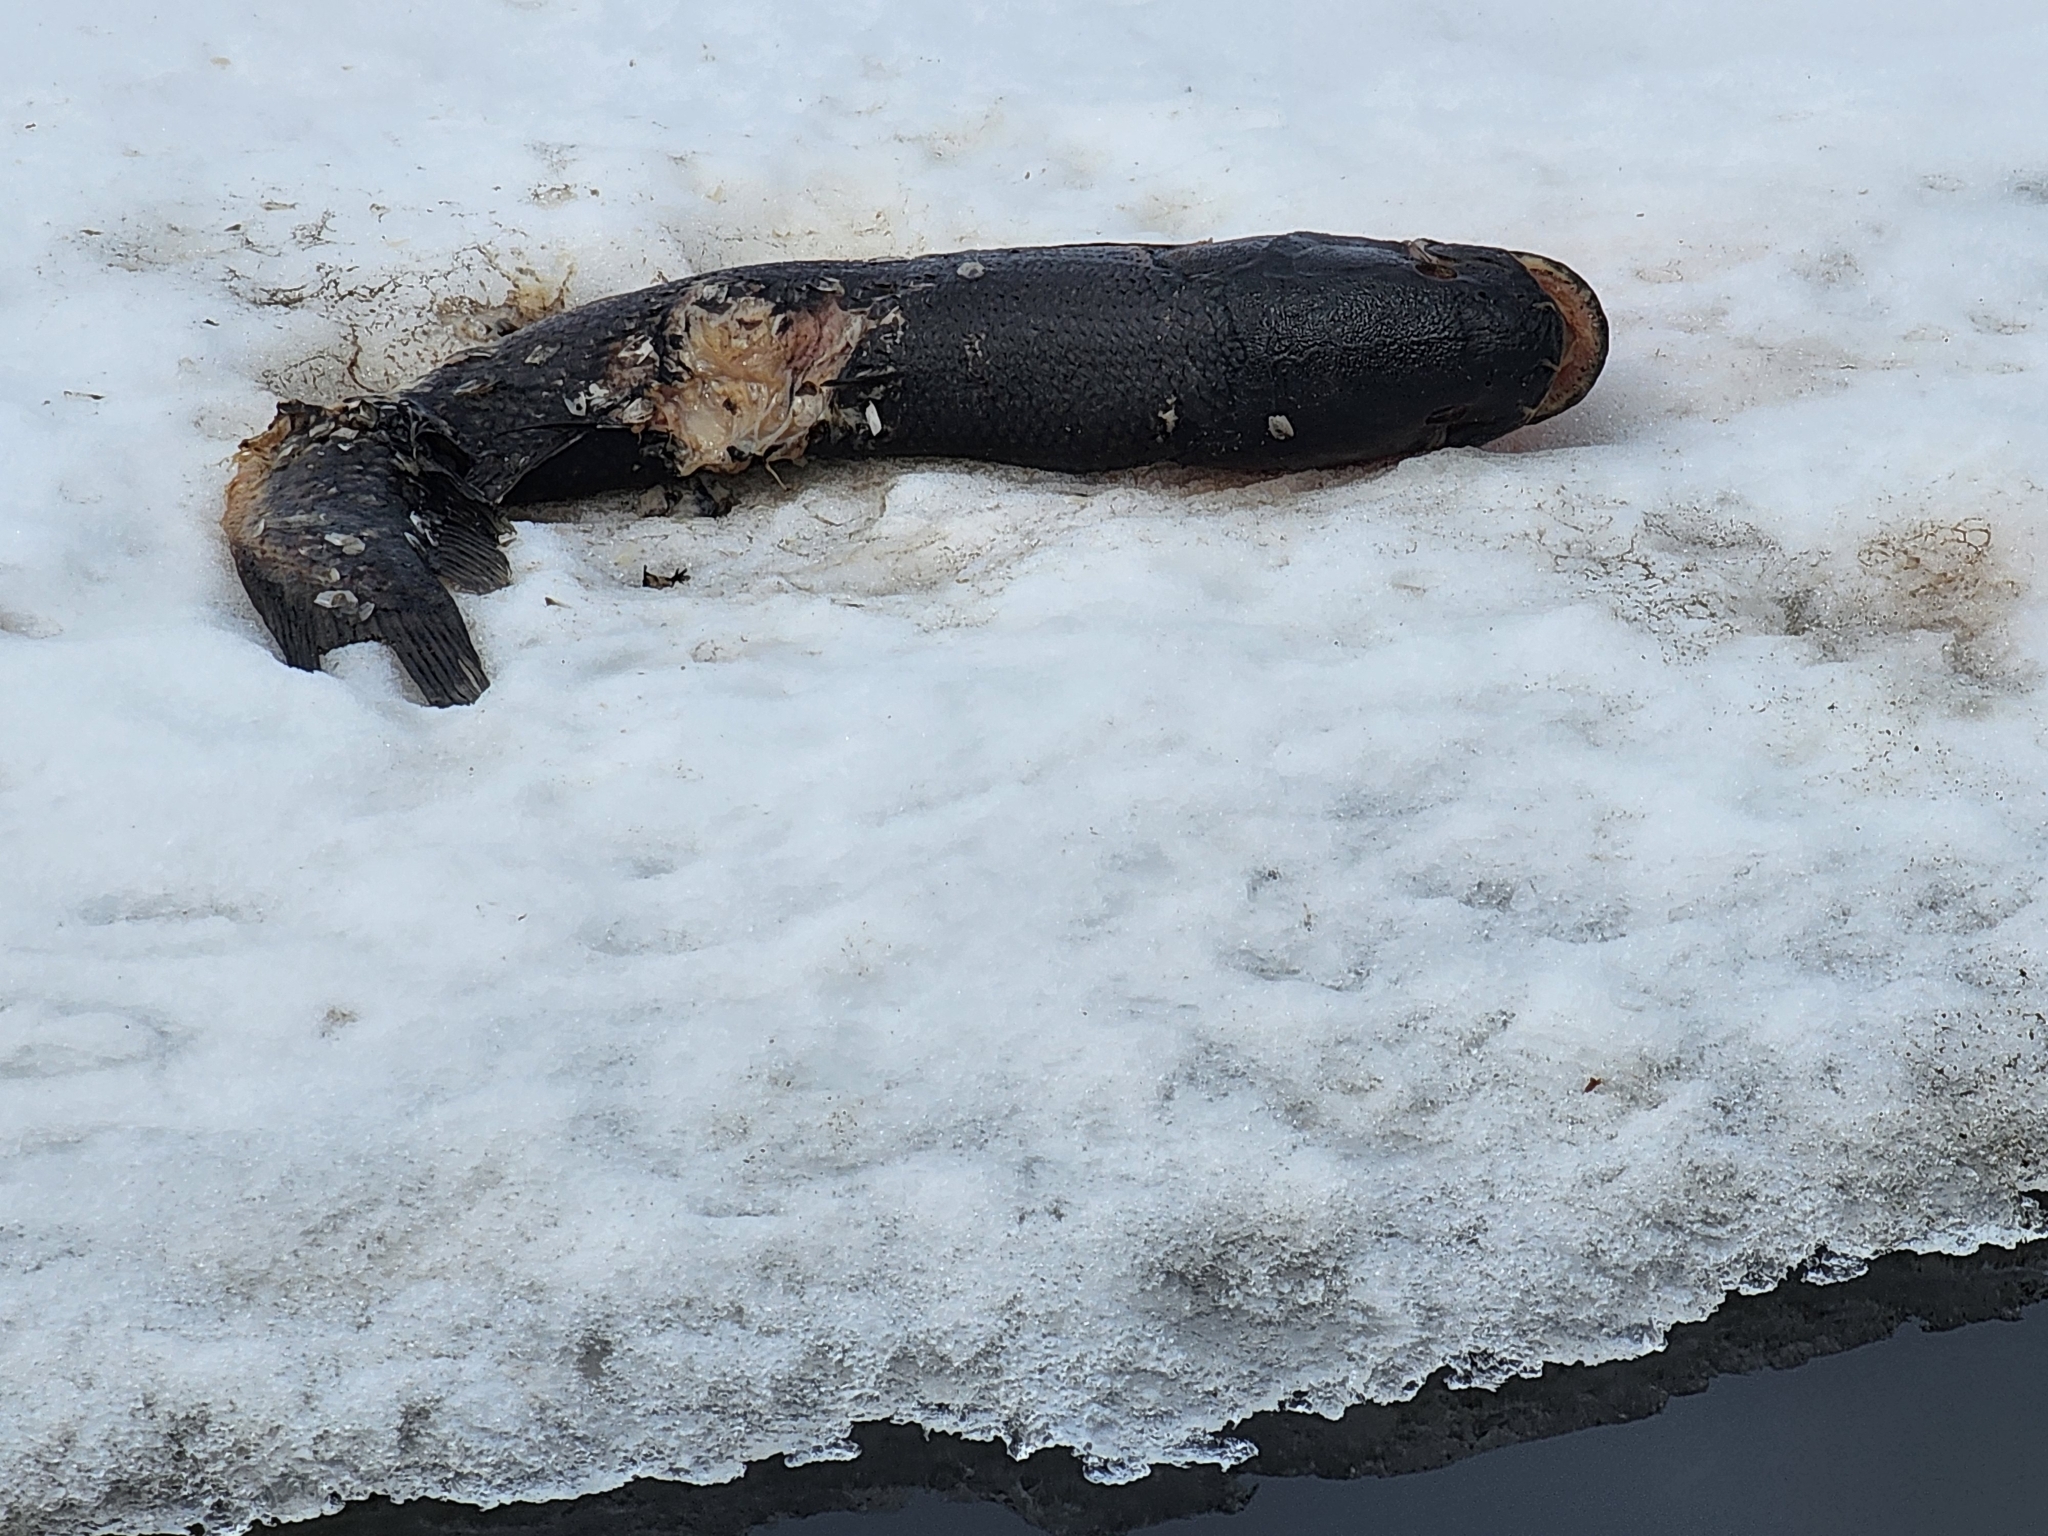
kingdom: Animalia
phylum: Chordata
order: Amiiformes
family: Amiidae
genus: Amia
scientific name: Amia calva
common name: Bowfin
